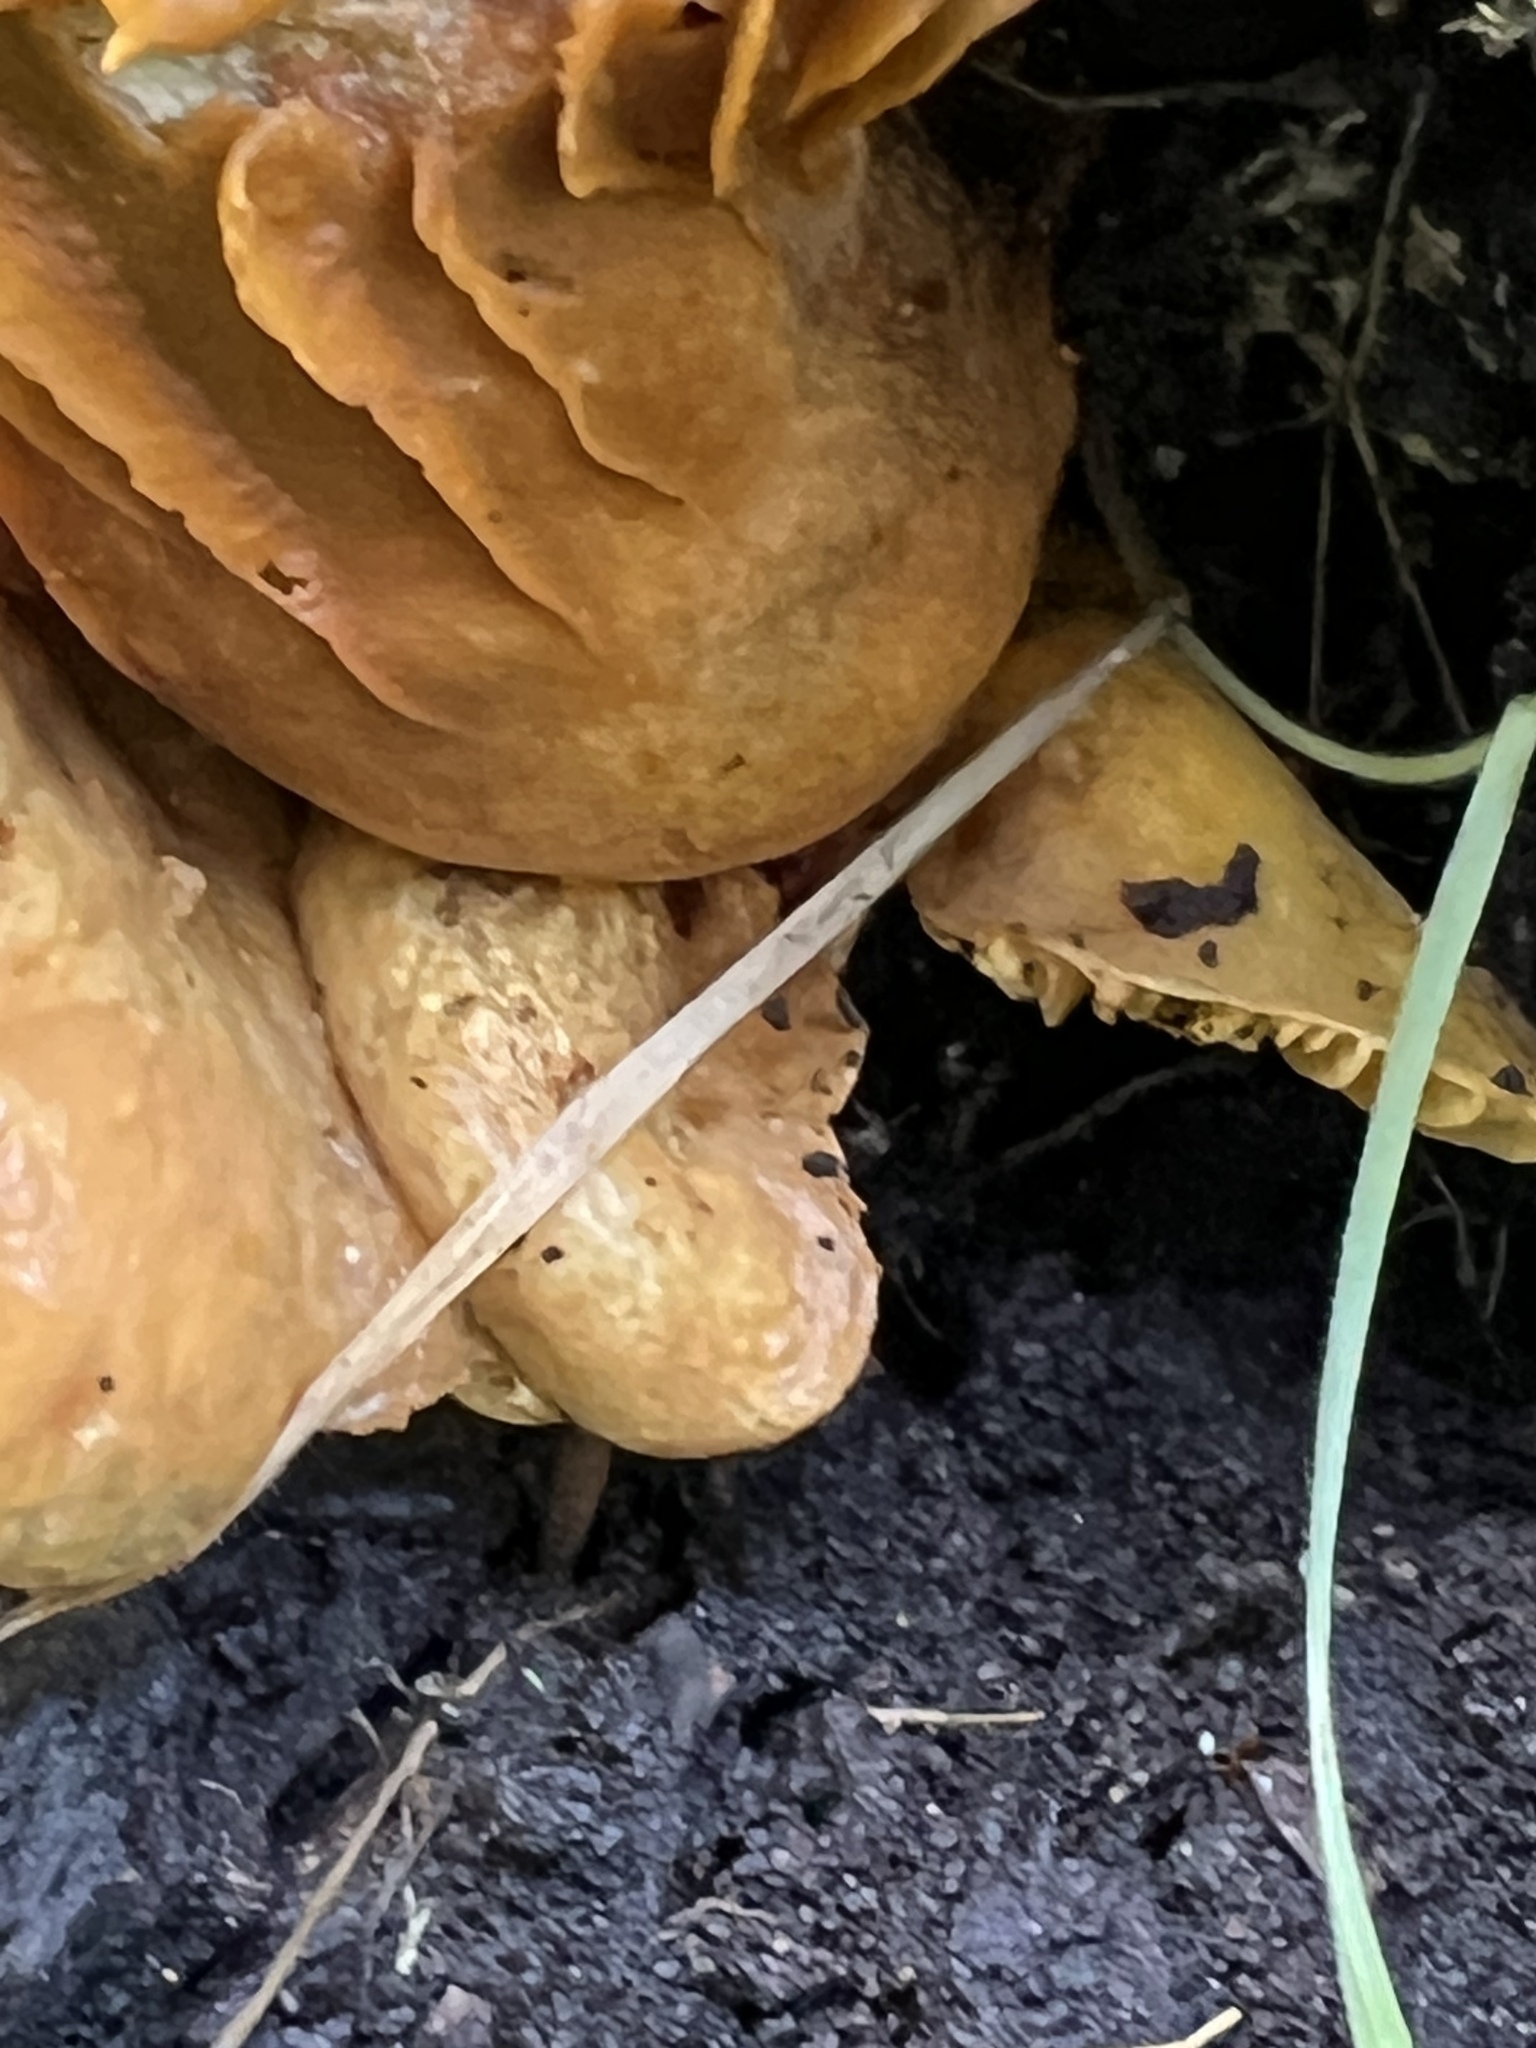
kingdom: Fungi
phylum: Basidiomycota
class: Agaricomycetes
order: Agaricales
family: Omphalotaceae
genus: Omphalotus
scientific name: Omphalotus olivascens
